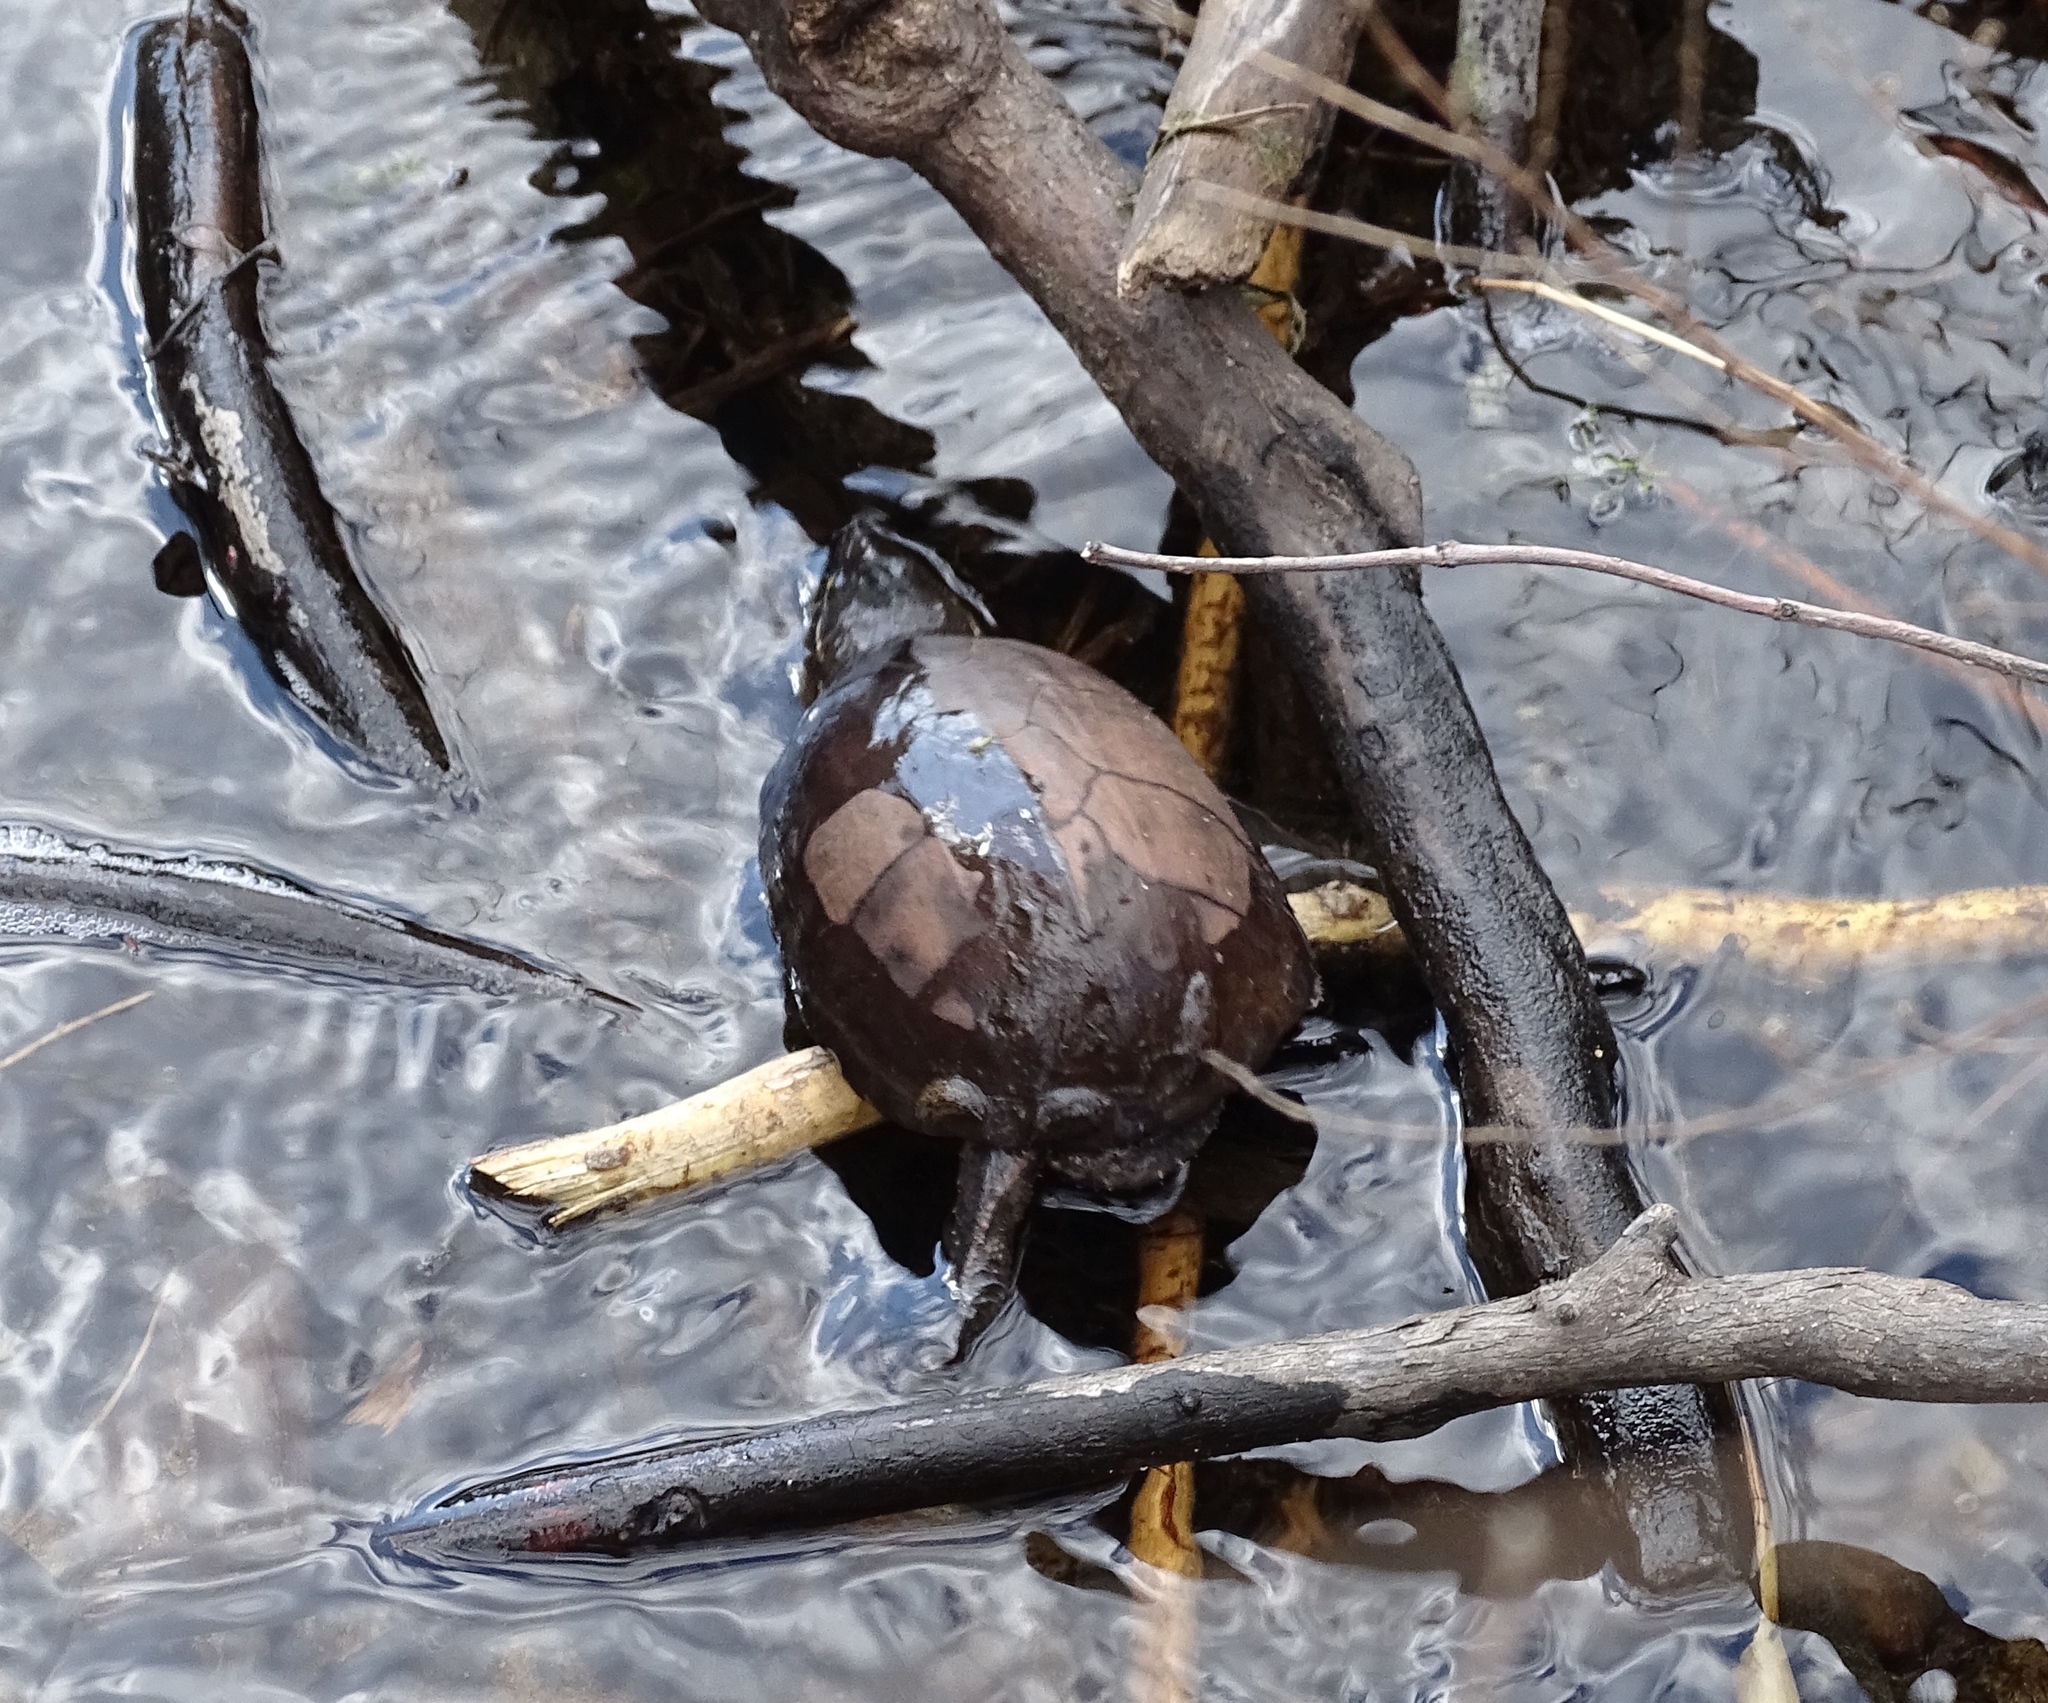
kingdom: Animalia
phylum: Chordata
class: Testudines
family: Kinosternidae
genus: Sternotherus
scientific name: Sternotherus odoratus
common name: Common musk turtle
